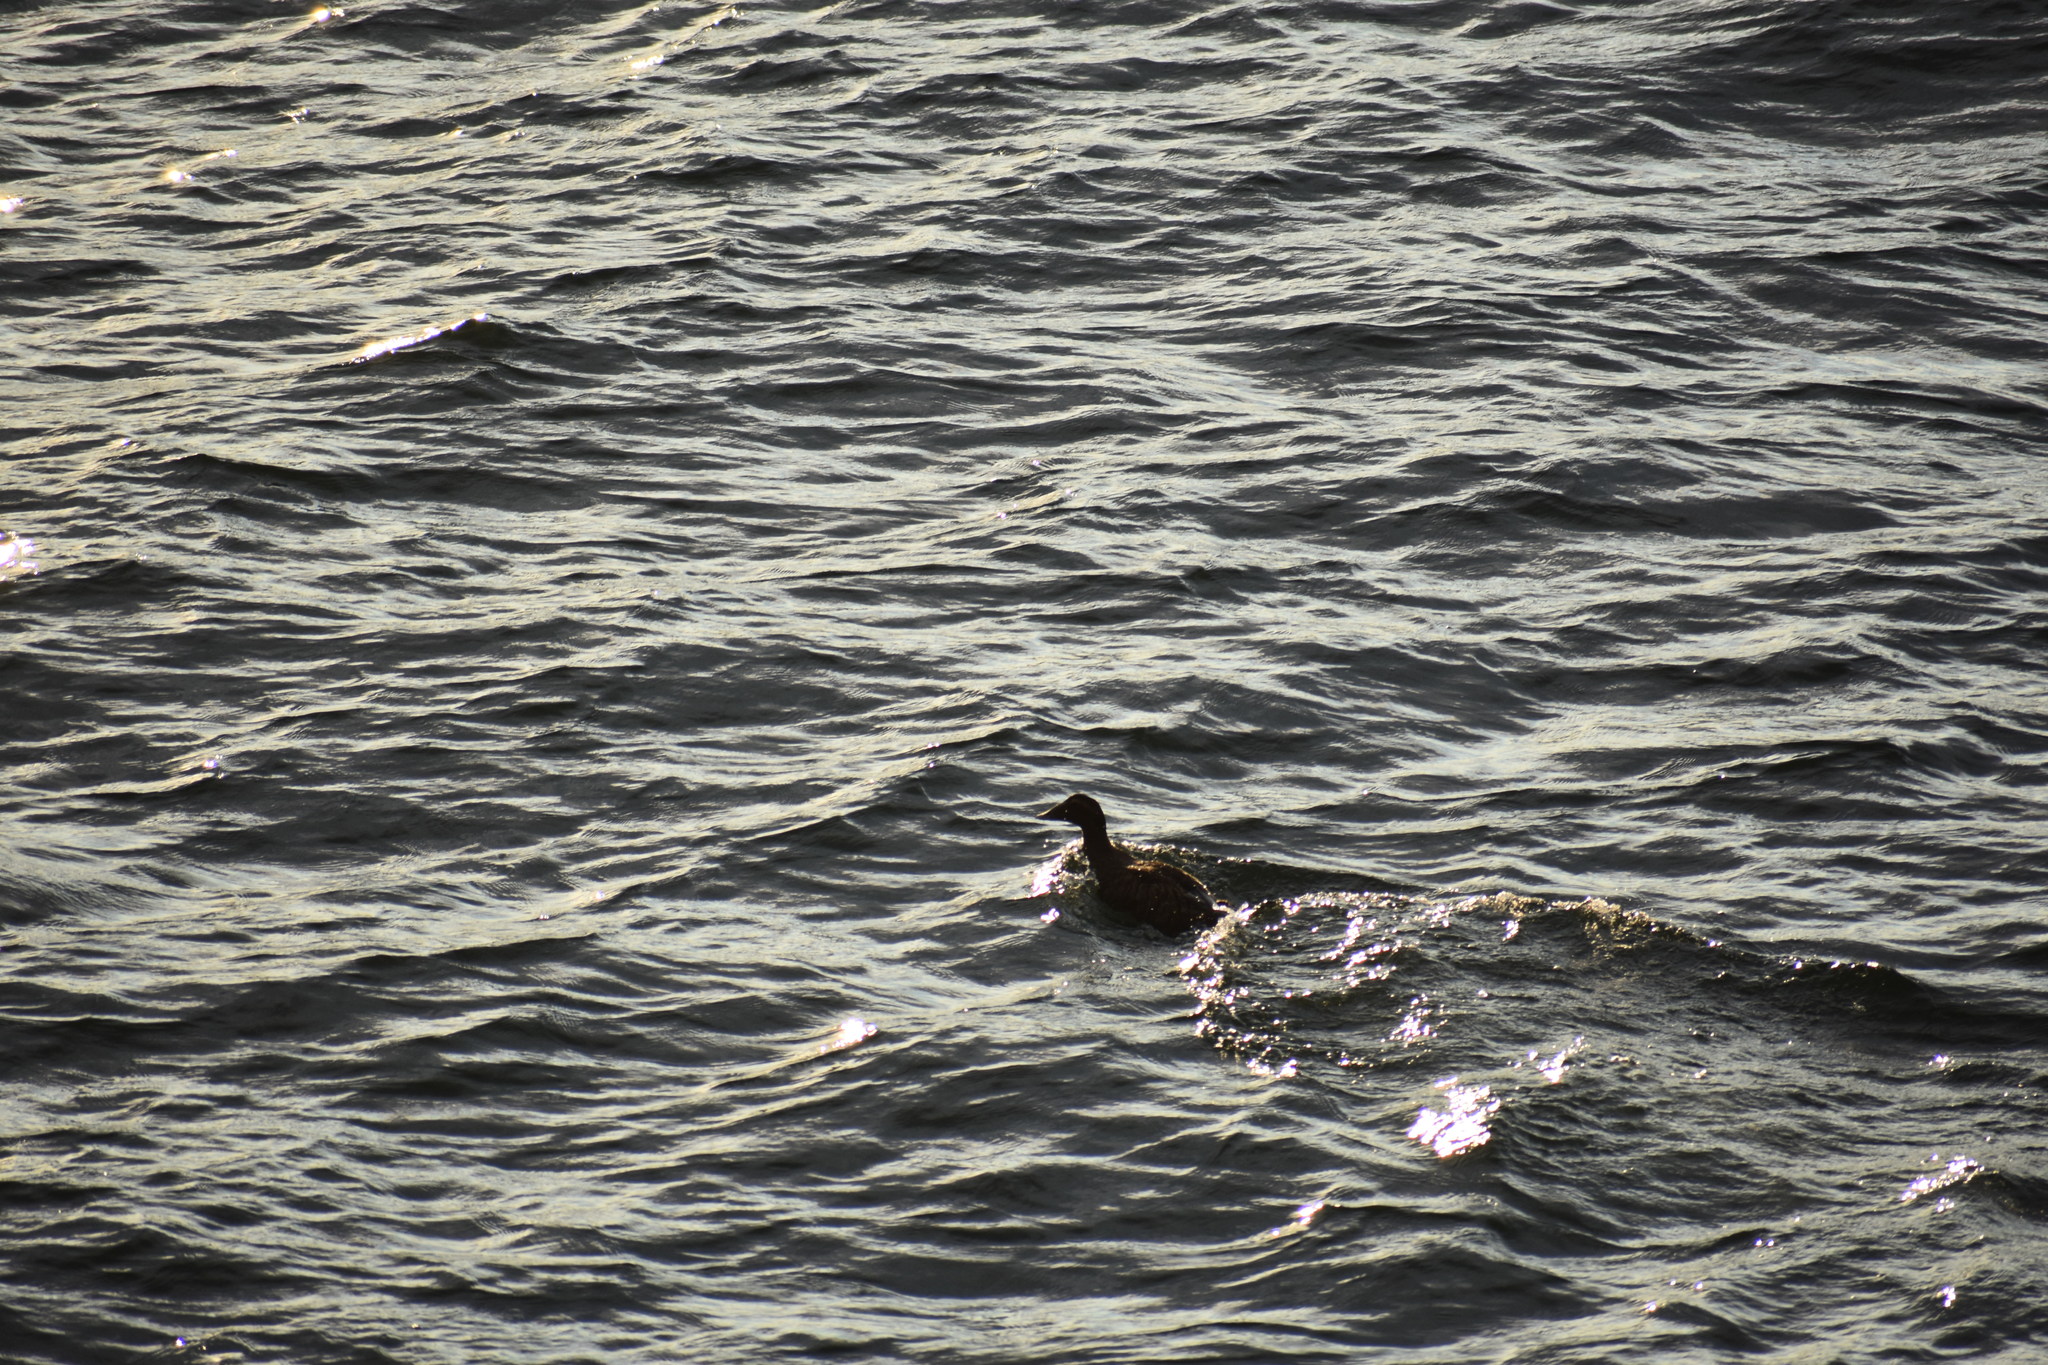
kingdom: Animalia
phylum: Chordata
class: Aves
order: Anseriformes
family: Anatidae
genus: Somateria
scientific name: Somateria mollissima
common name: Common eider
